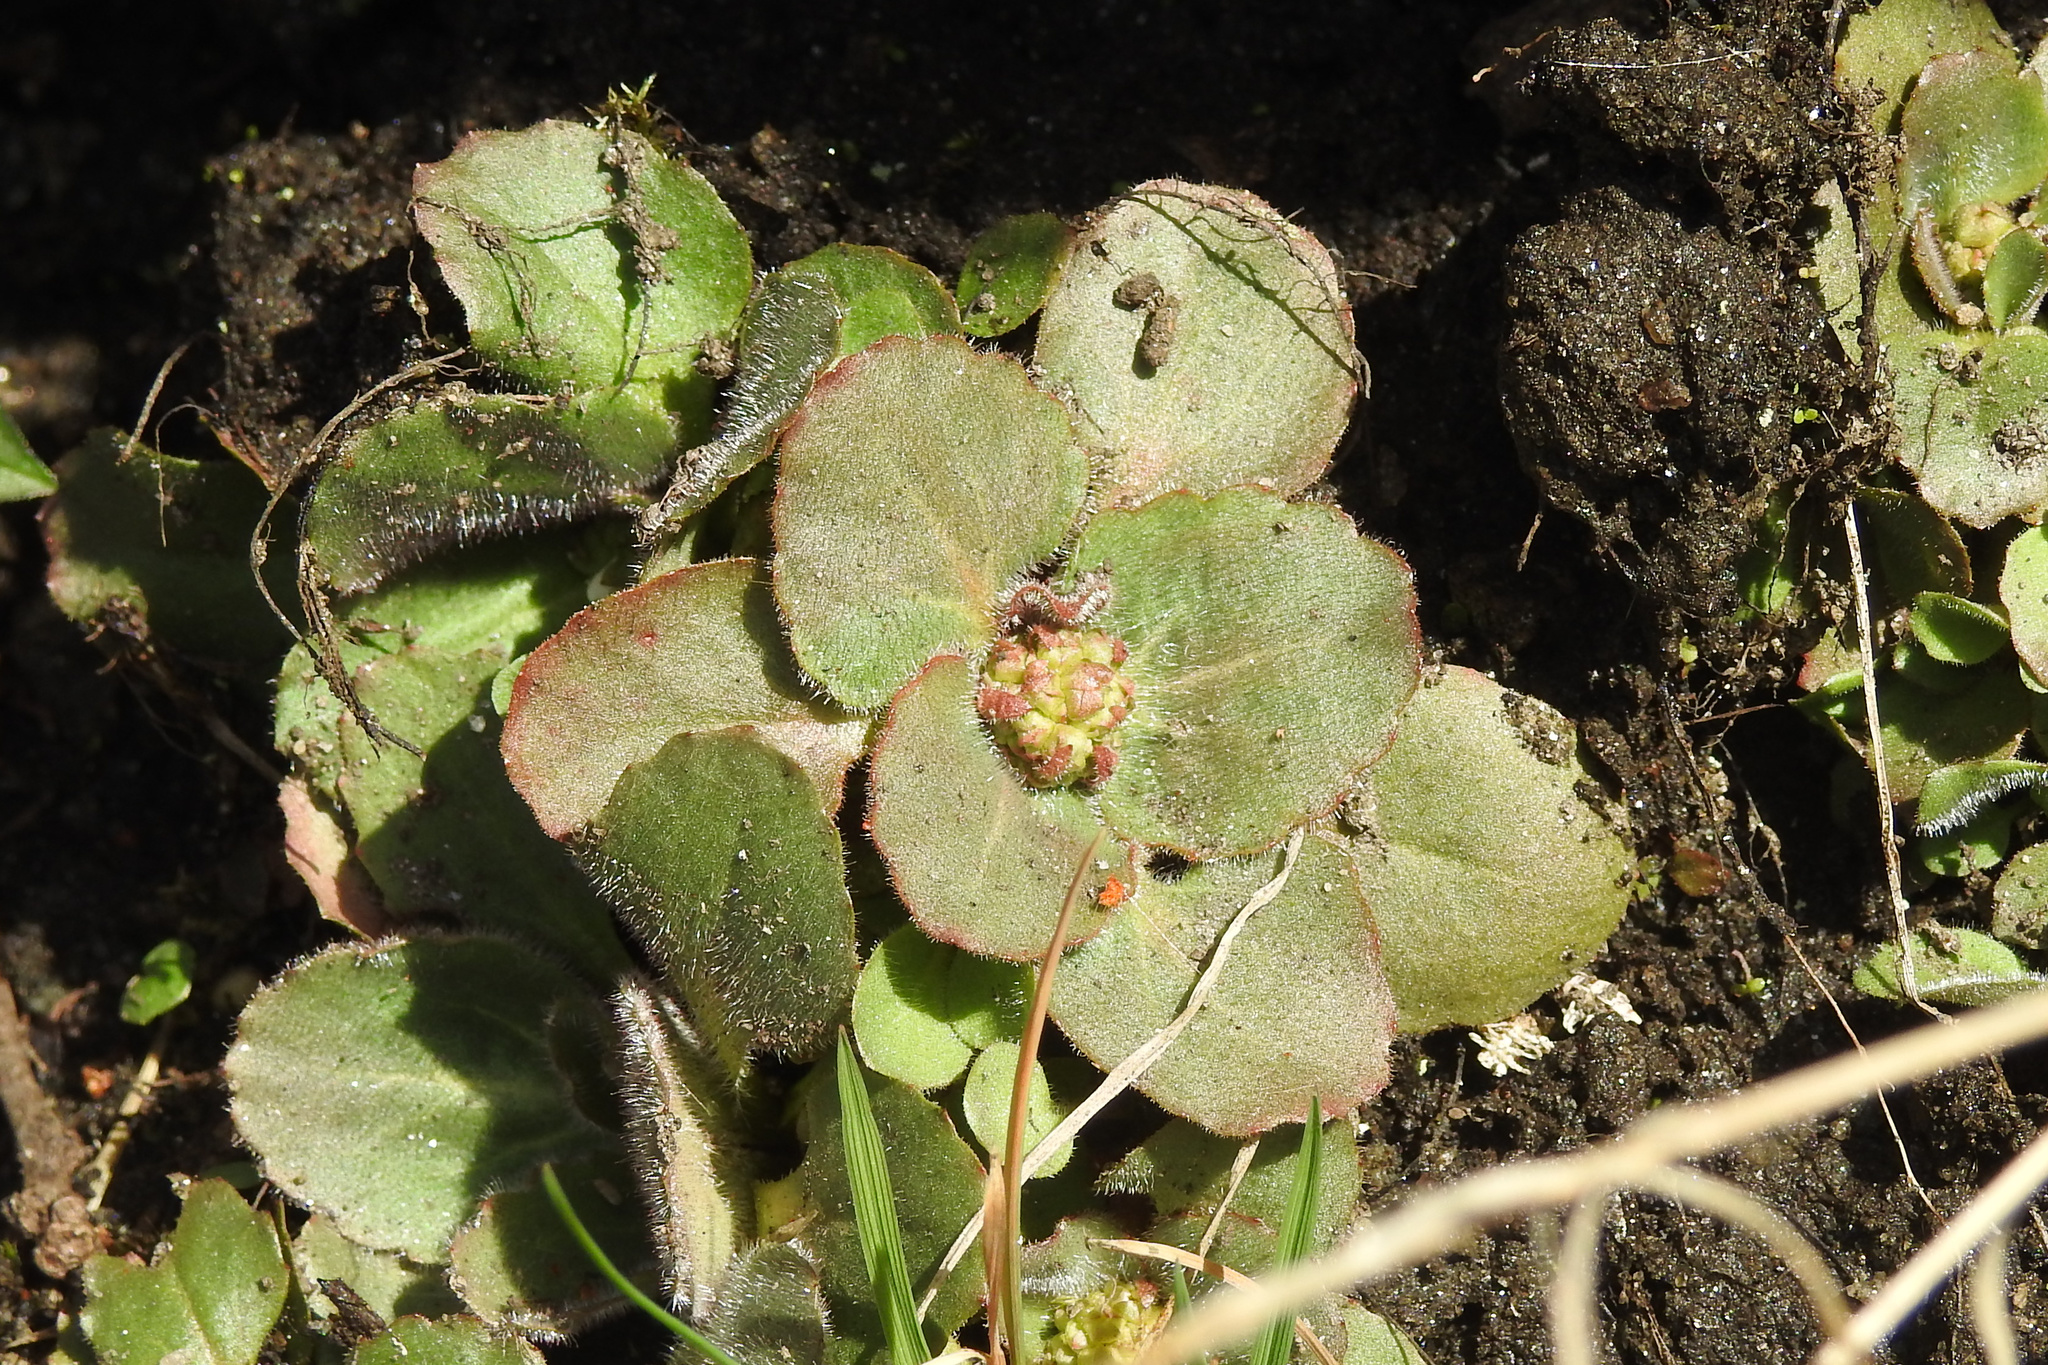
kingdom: Plantae
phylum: Tracheophyta
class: Magnoliopsida
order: Saxifragales
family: Saxifragaceae
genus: Micranthes
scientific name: Micranthes virginiensis
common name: Early saxifrage
